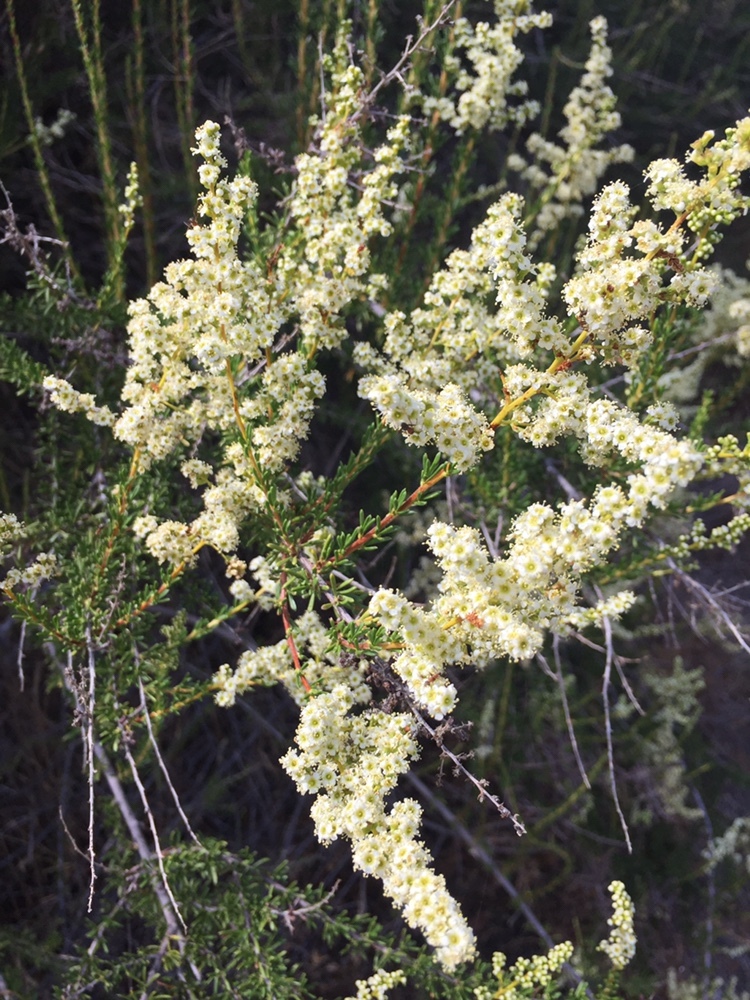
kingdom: Plantae
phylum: Tracheophyta
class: Magnoliopsida
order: Rosales
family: Rosaceae
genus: Adenostoma
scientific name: Adenostoma fasciculatum
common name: Chamise
